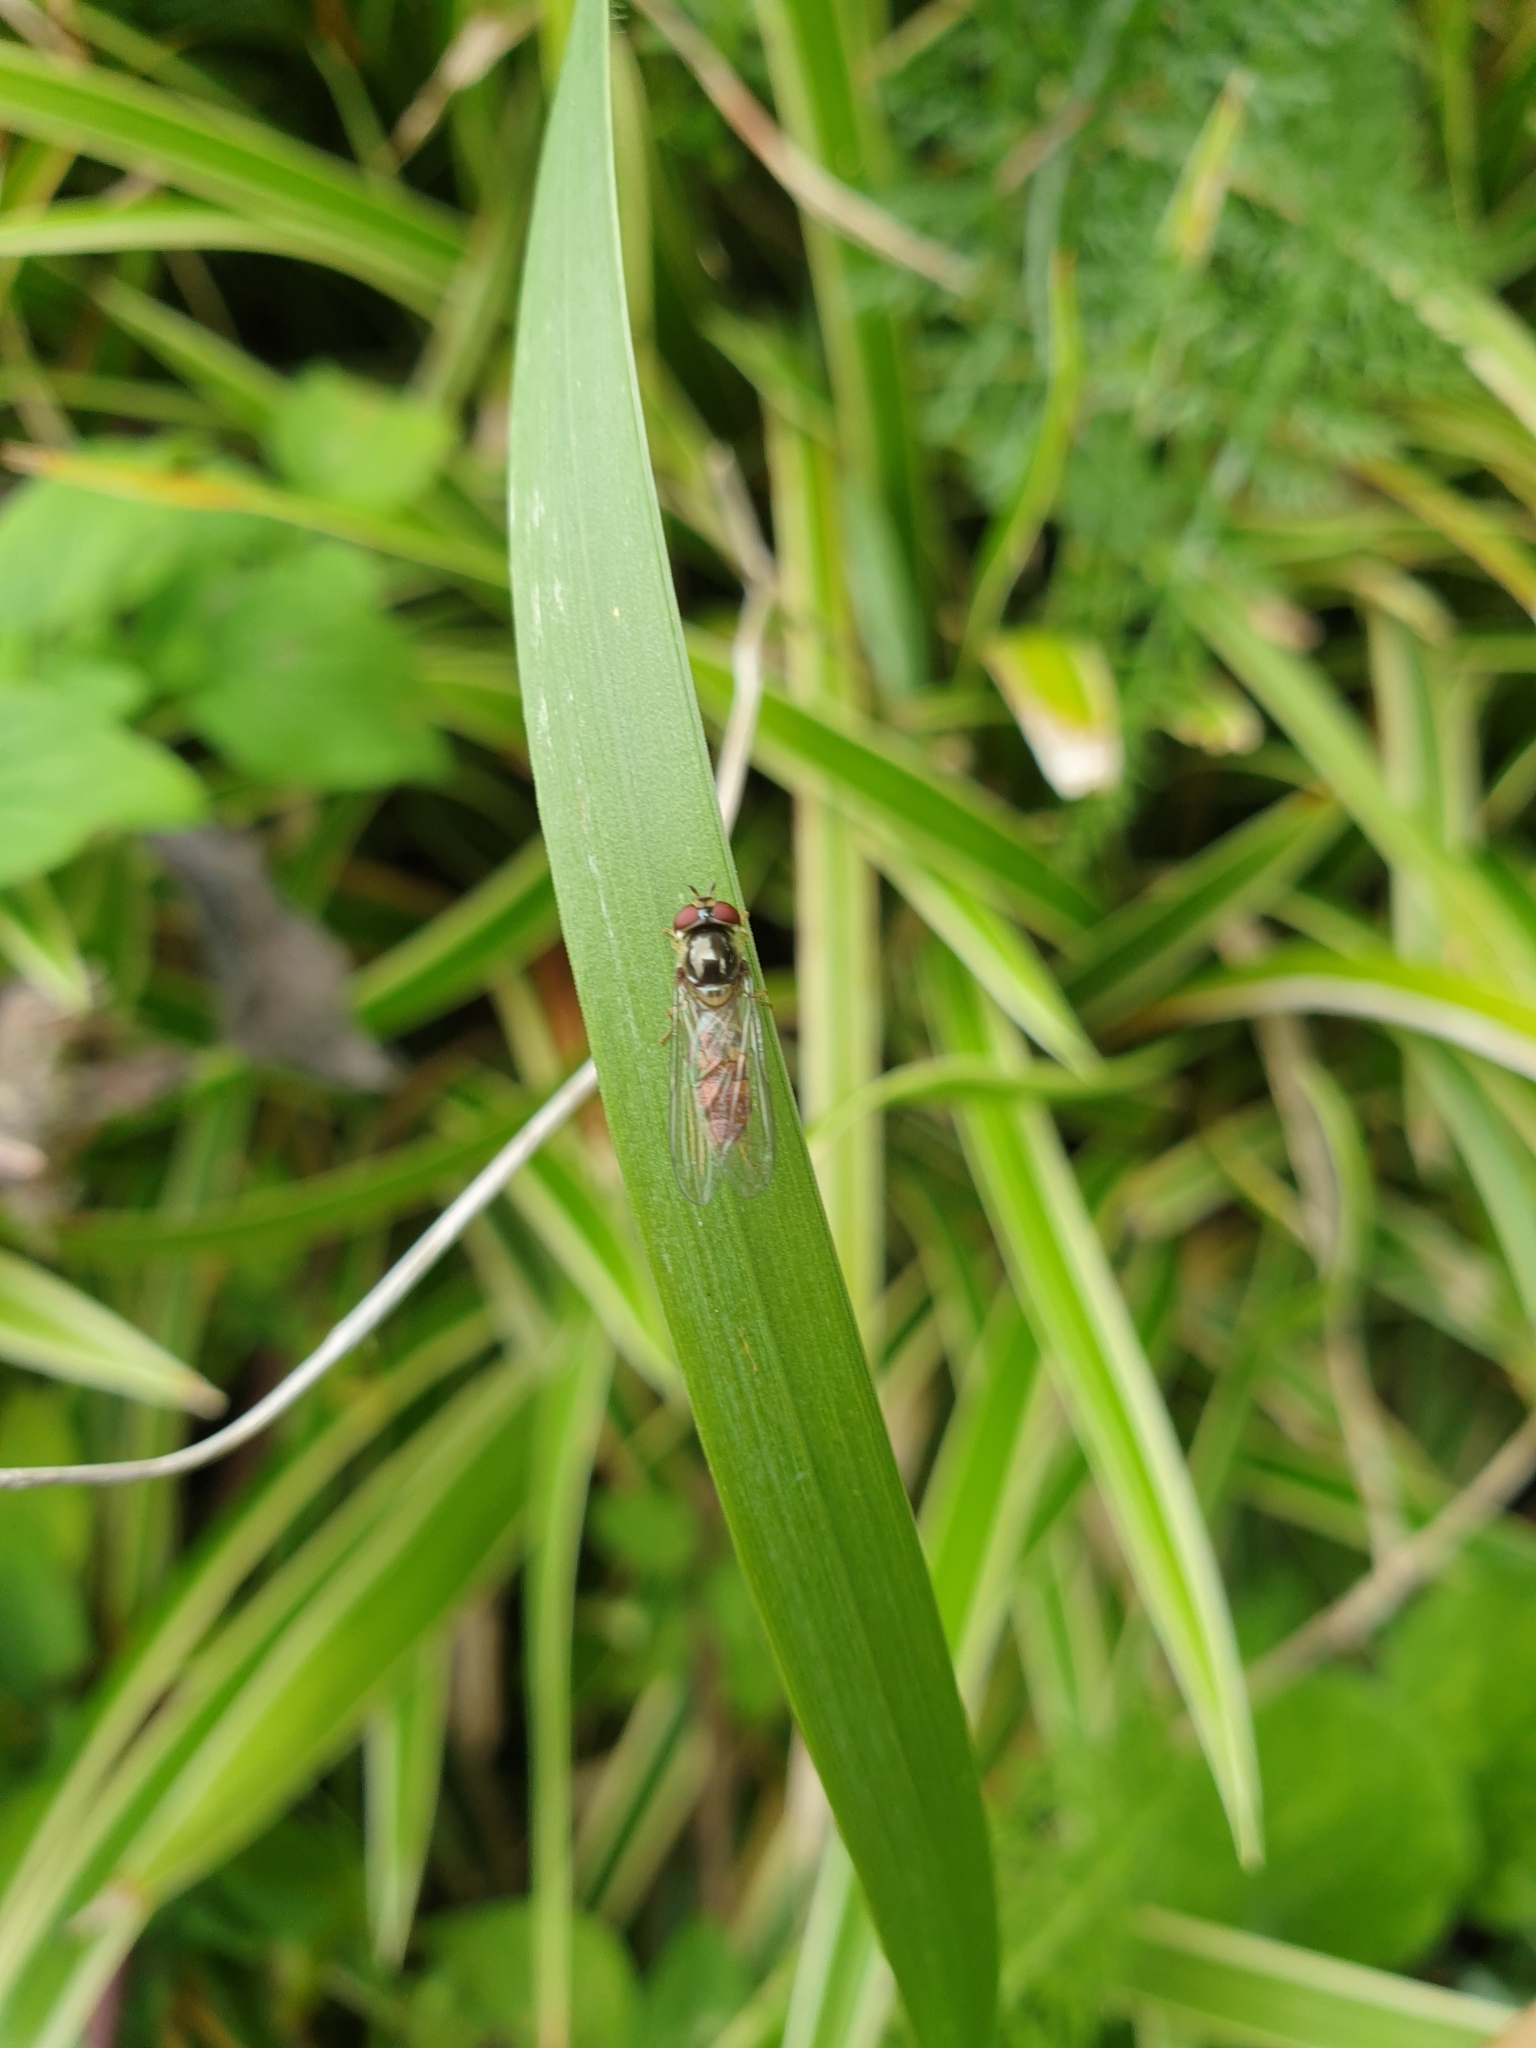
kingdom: Animalia
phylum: Arthropoda
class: Insecta
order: Diptera
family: Syrphidae
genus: Meliscaeva
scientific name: Meliscaeva auricollis
